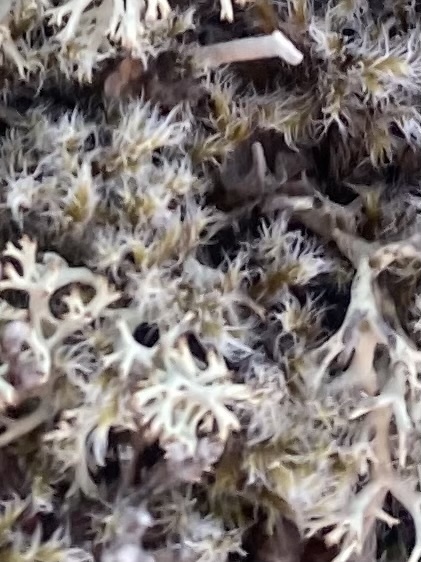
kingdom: Plantae
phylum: Bryophyta
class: Bryopsida
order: Grimmiales
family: Grimmiaceae
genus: Racomitrium
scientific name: Racomitrium lanuginosum
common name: Hoary rock moss
